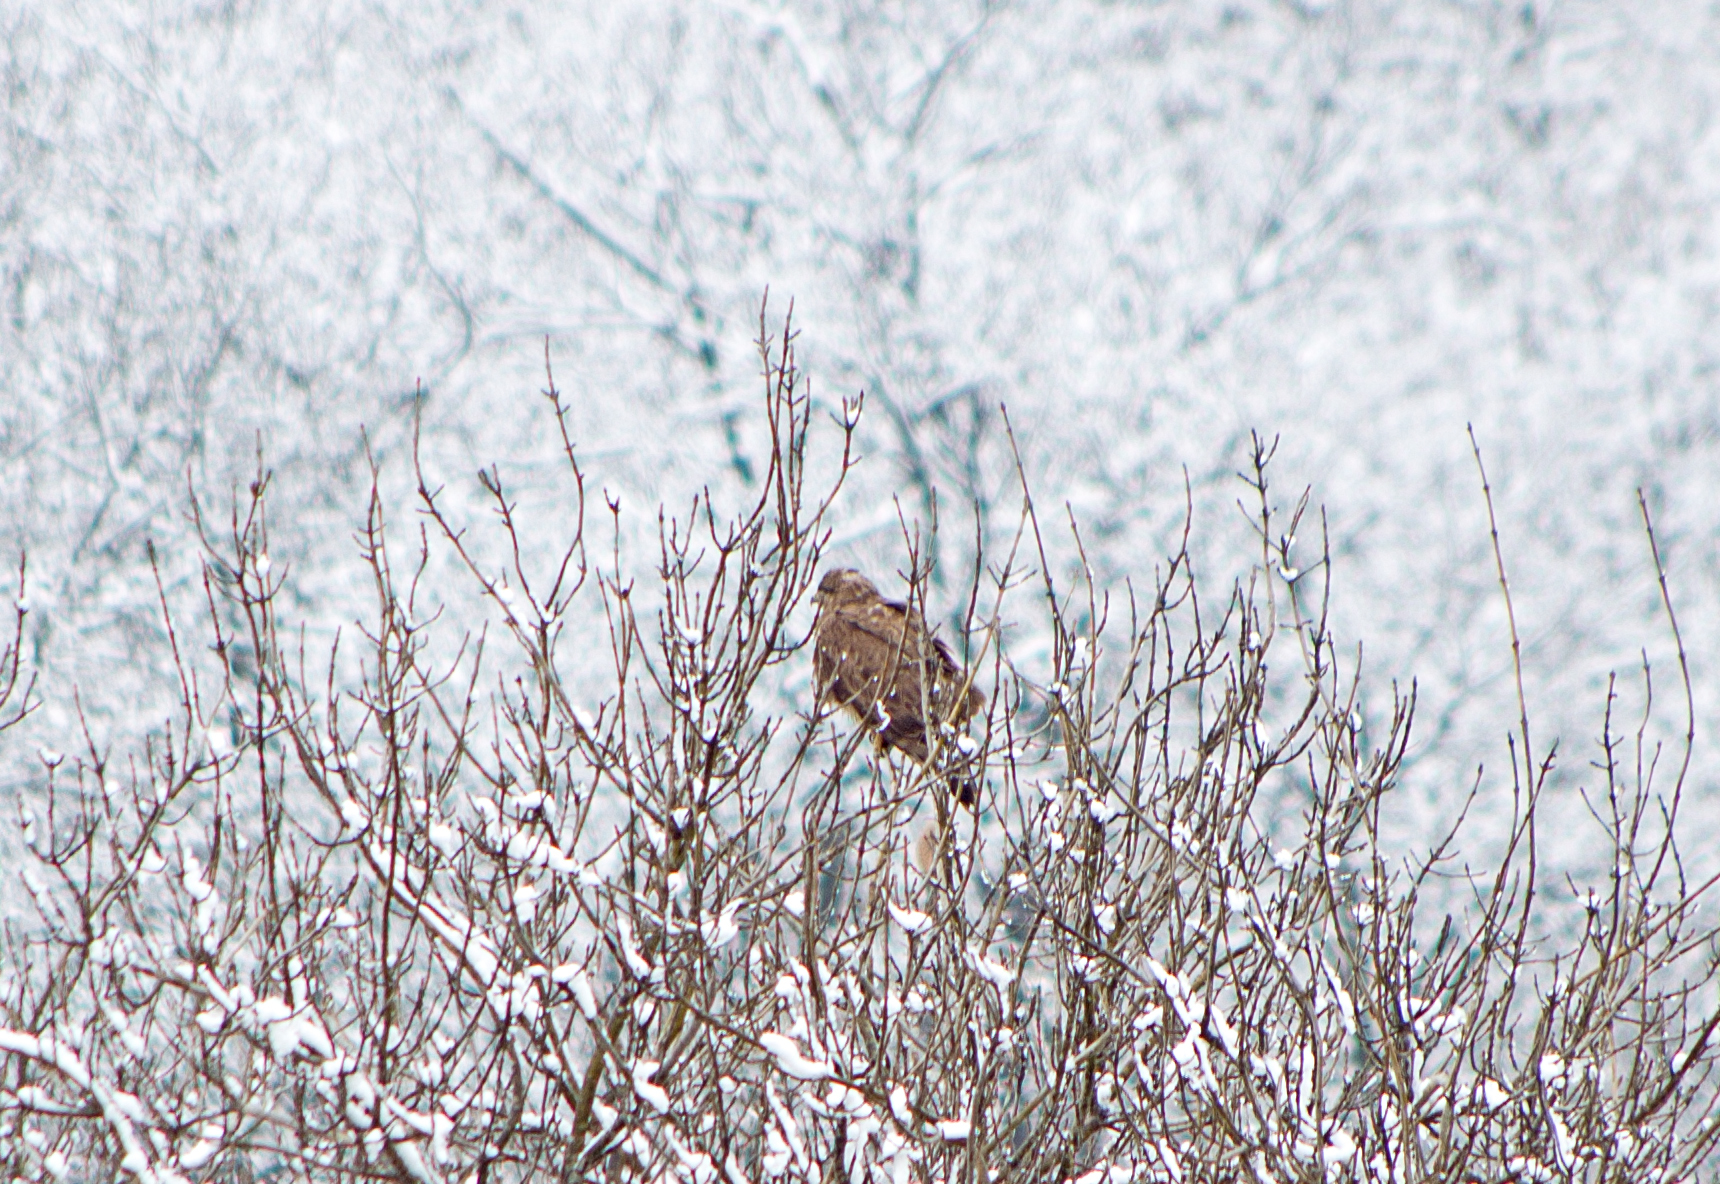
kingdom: Animalia
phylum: Chordata
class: Aves
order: Accipitriformes
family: Accipitridae
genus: Buteo
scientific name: Buteo buteo
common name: Common buzzard
